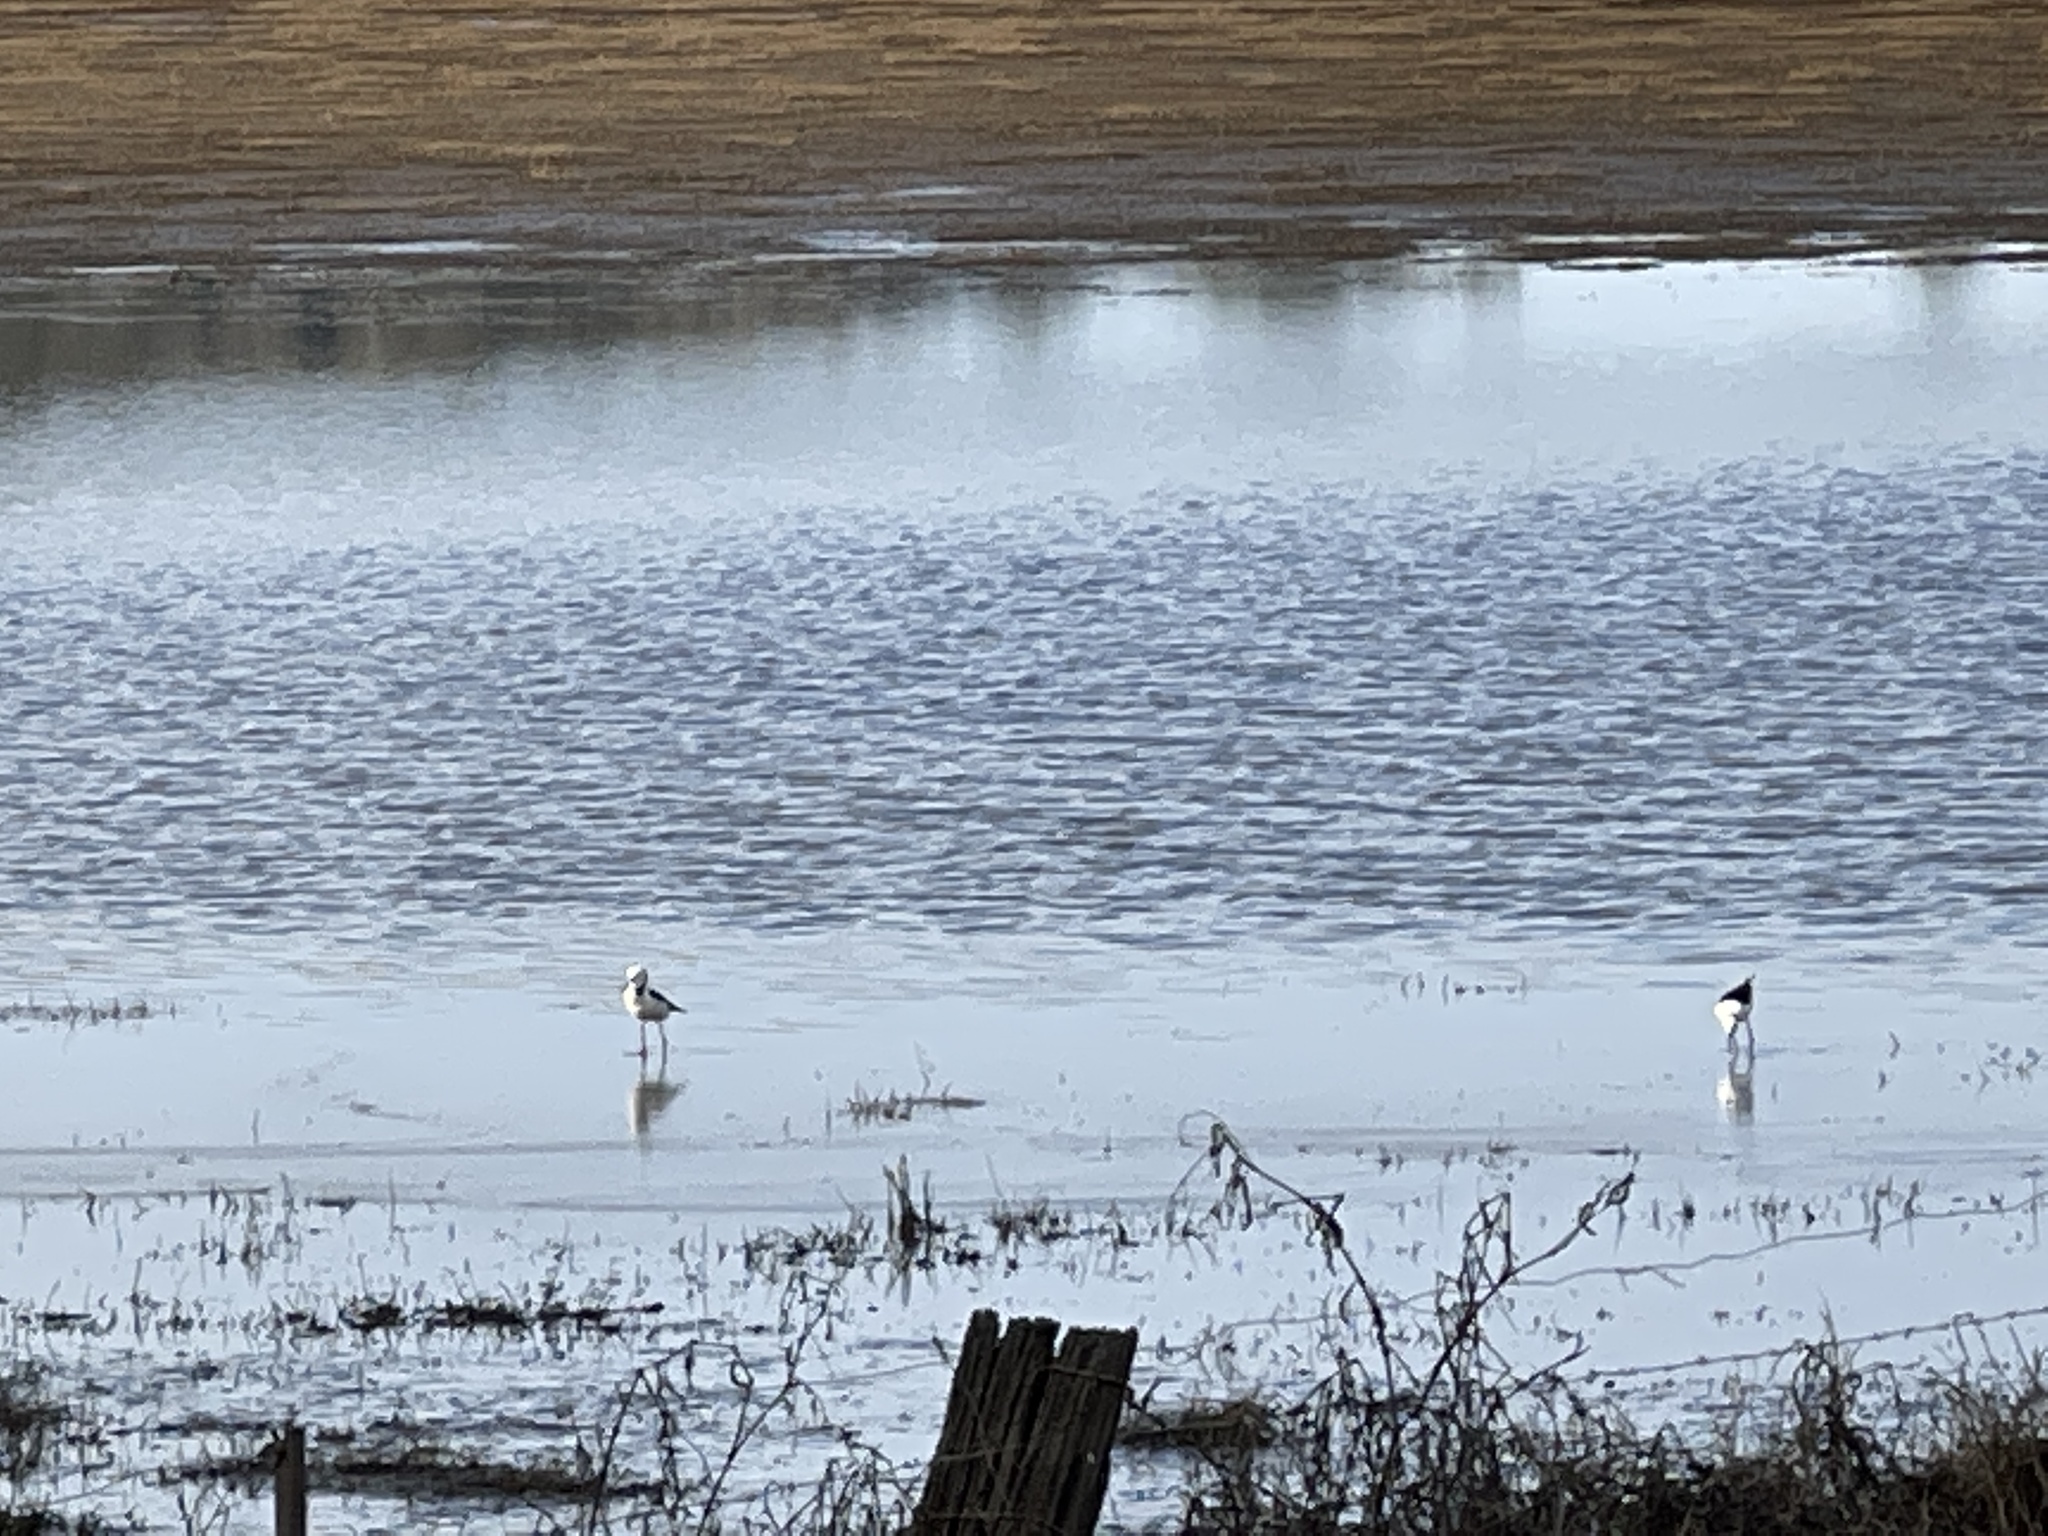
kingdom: Animalia
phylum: Chordata
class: Aves
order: Charadriiformes
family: Recurvirostridae
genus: Himantopus
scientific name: Himantopus leucocephalus
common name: White-headed stilt
